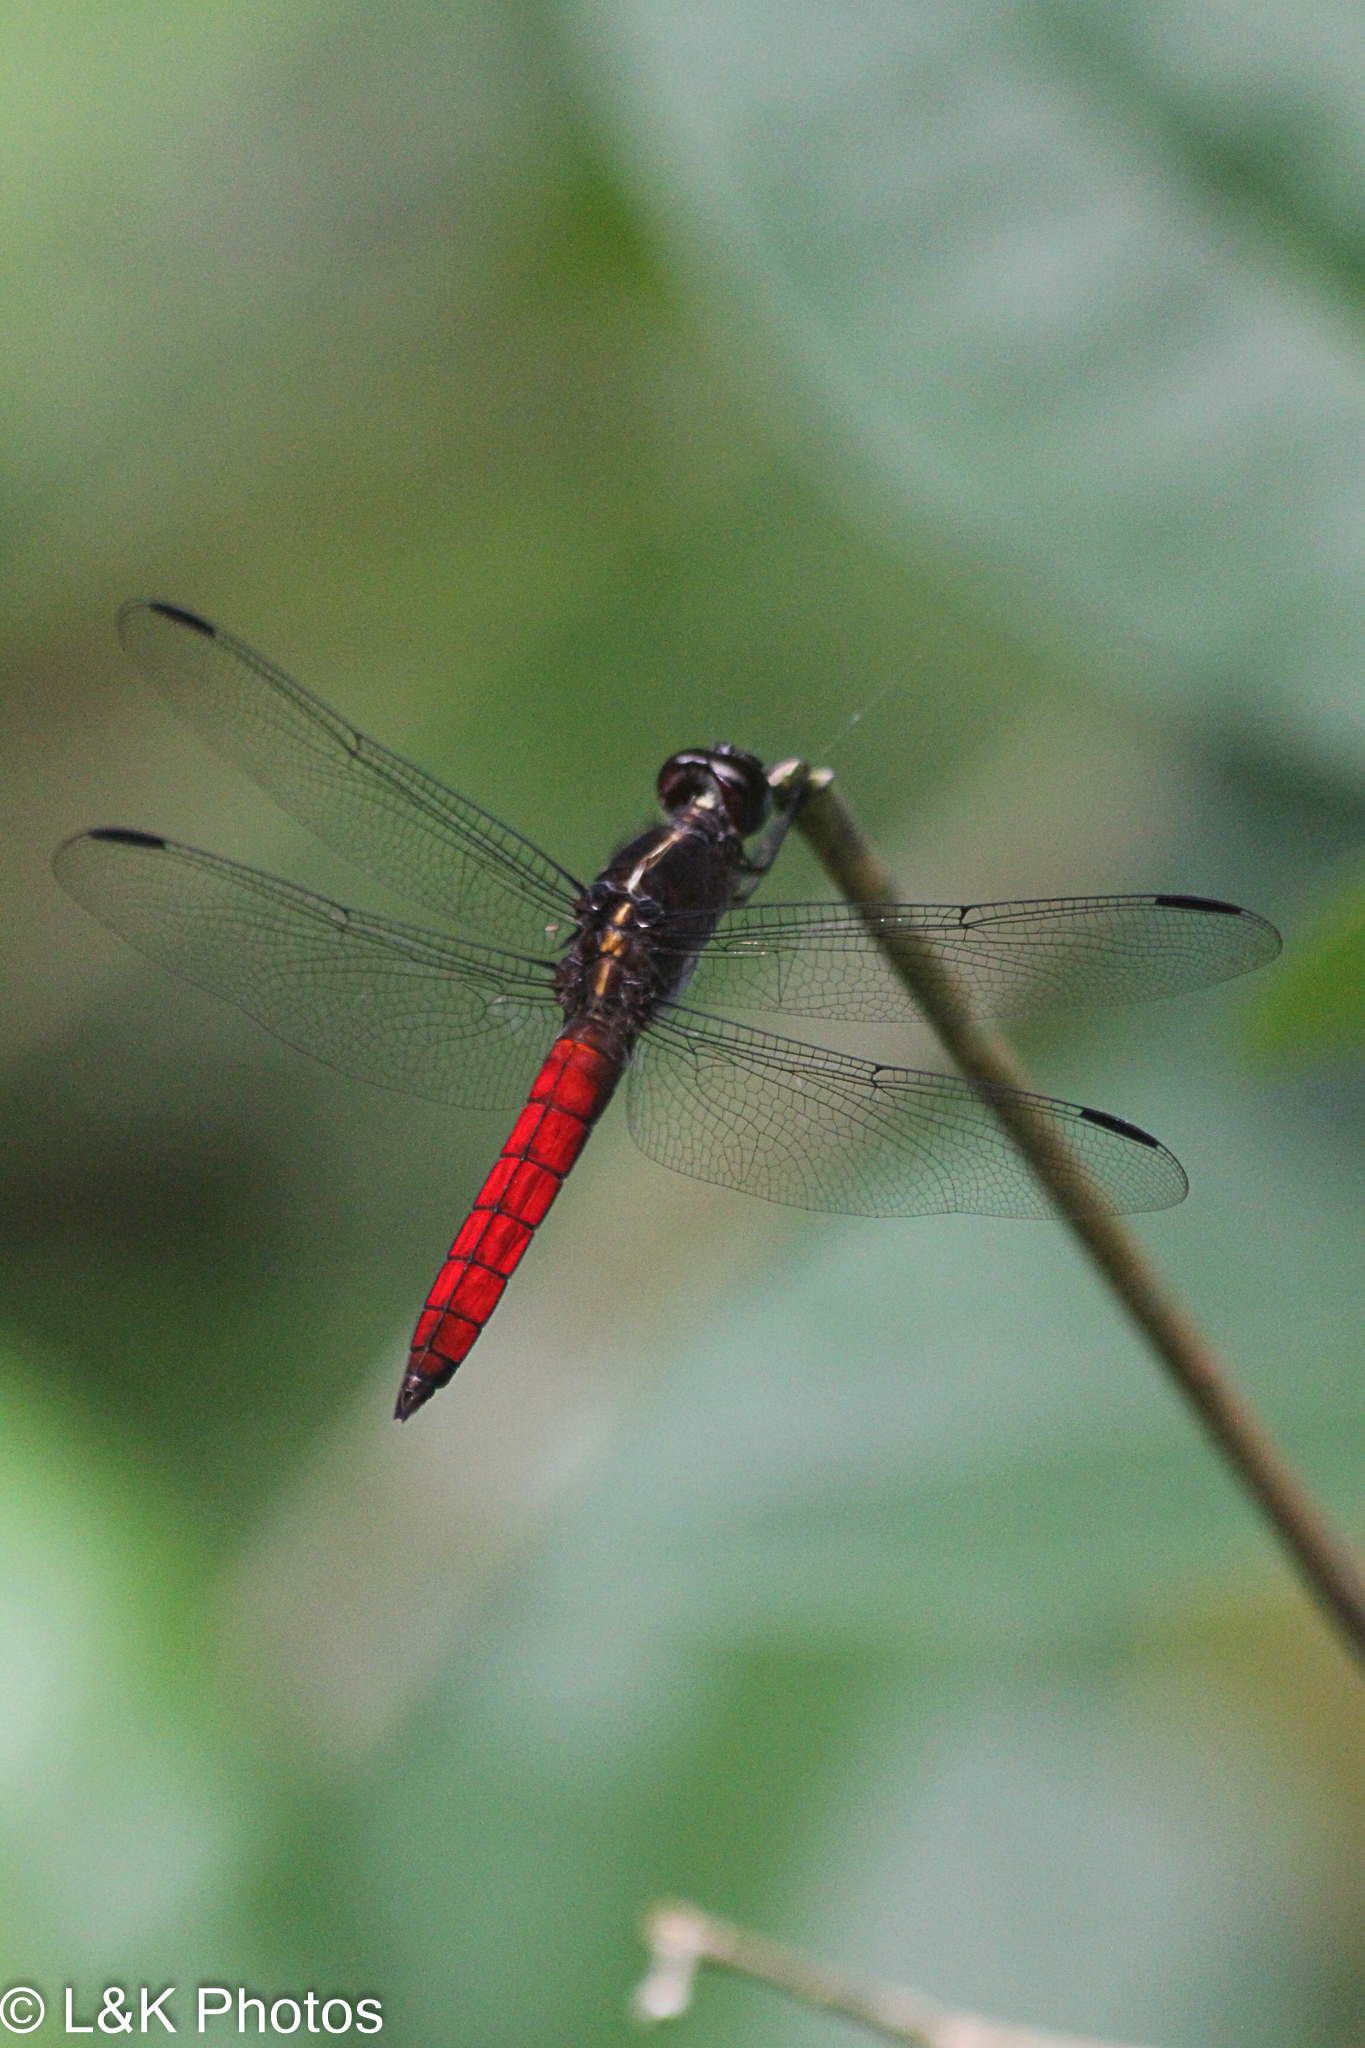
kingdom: Animalia
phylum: Arthropoda
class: Insecta
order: Odonata
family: Libellulidae
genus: Libellula
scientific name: Libellula herculea
